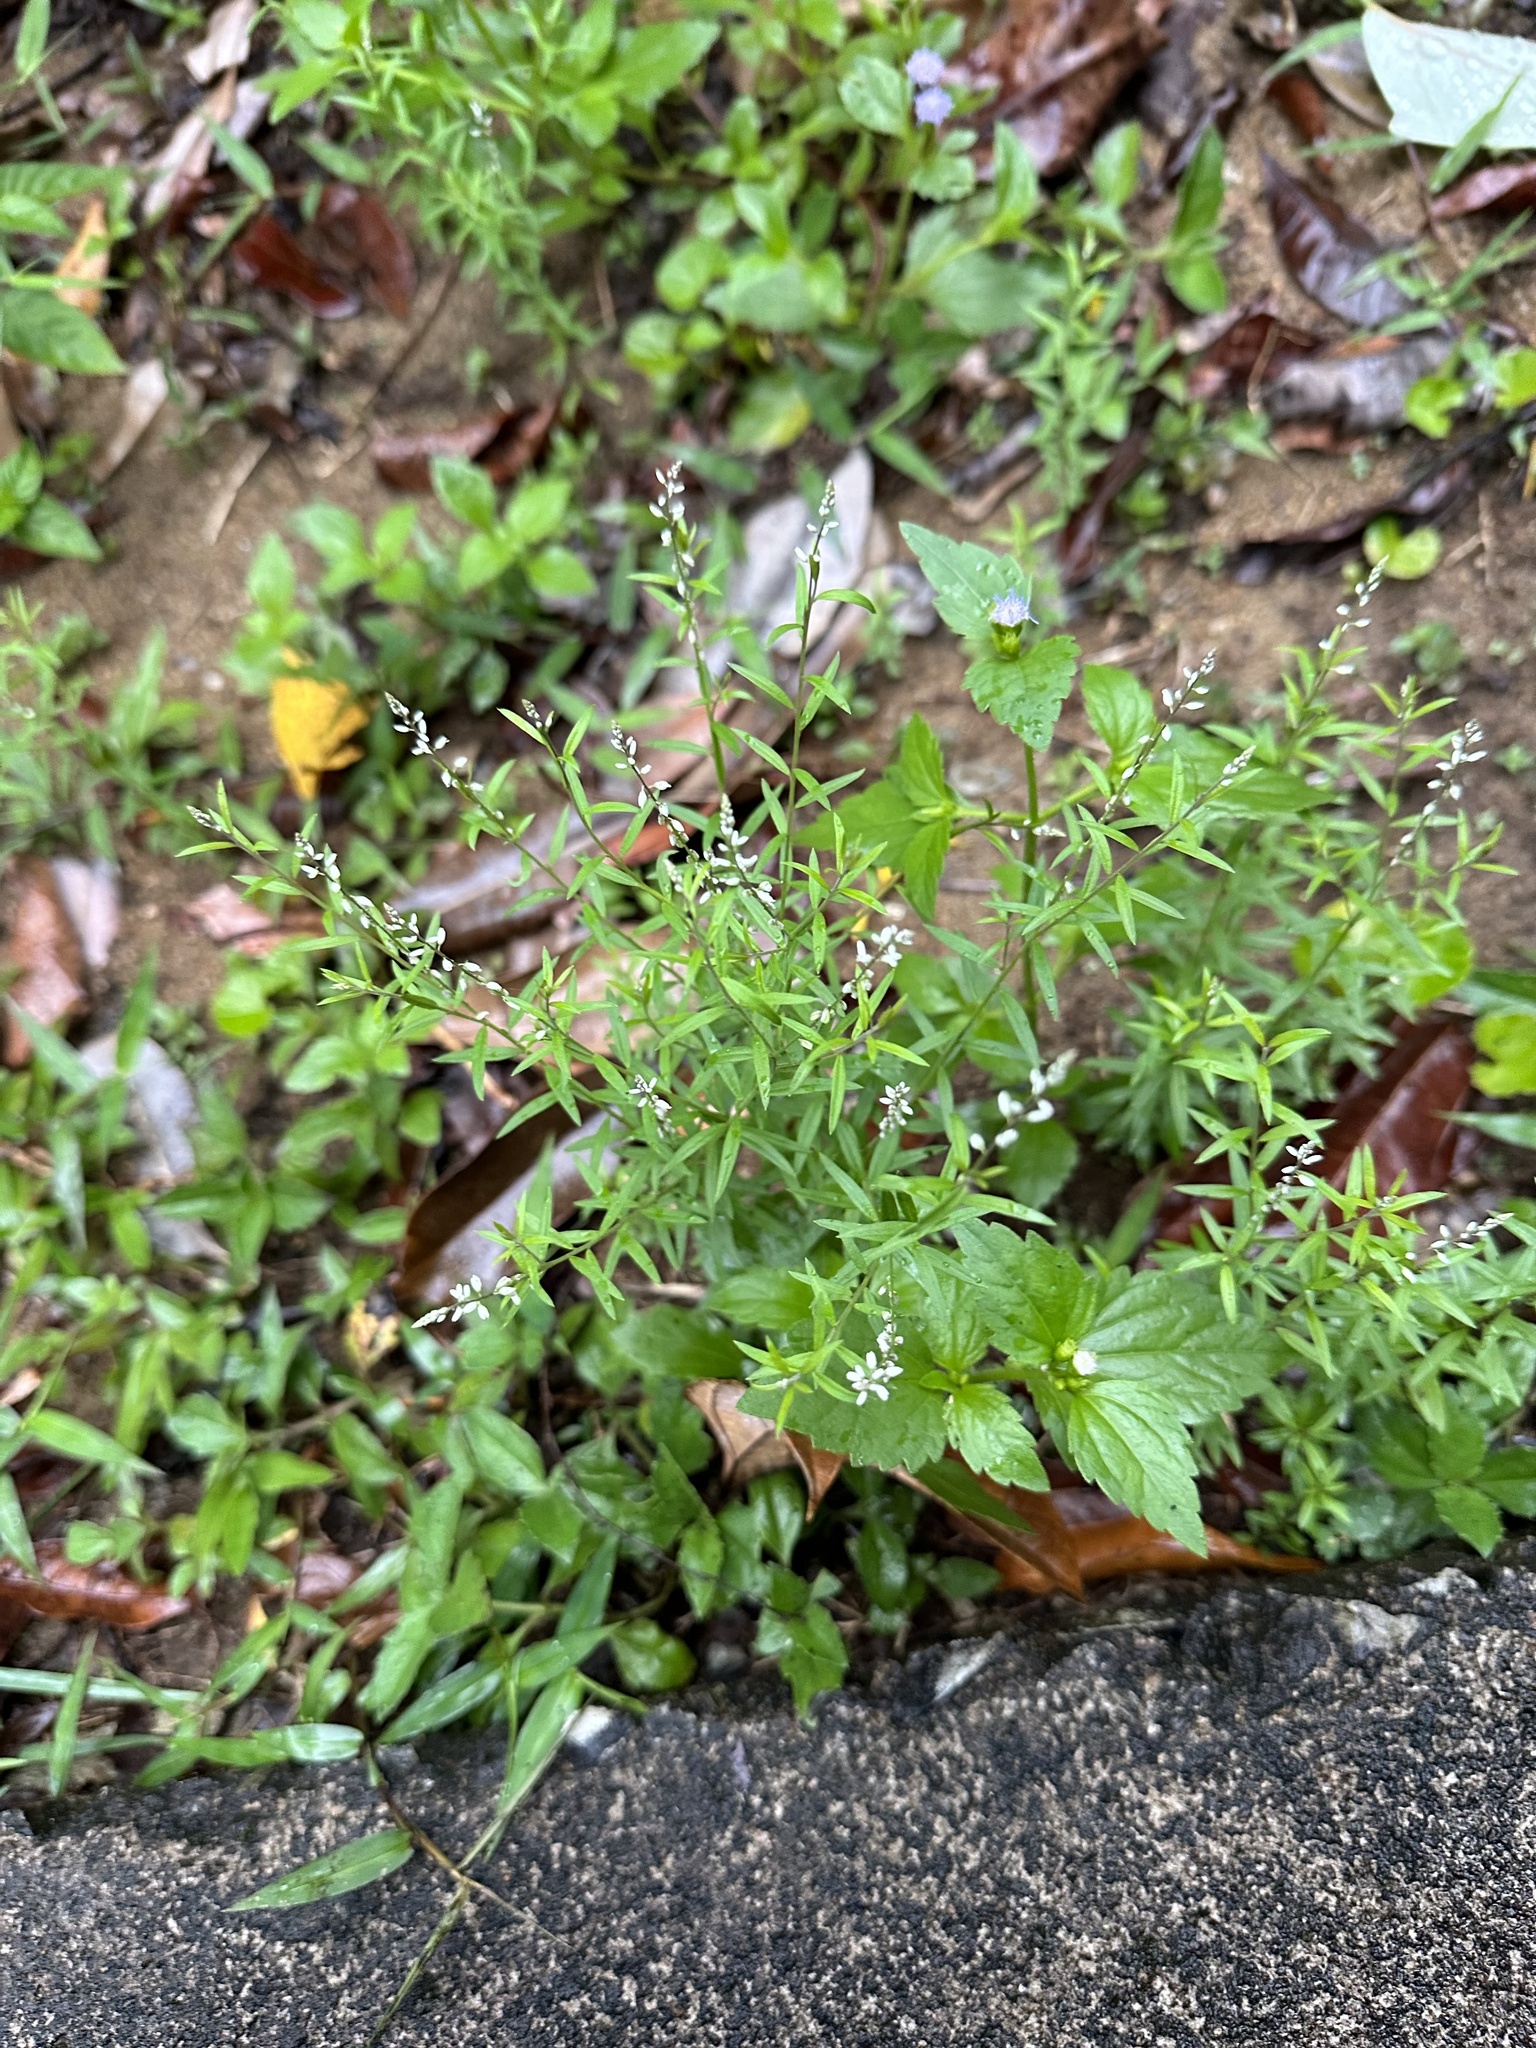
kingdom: Plantae
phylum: Tracheophyta
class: Magnoliopsida
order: Fabales
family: Polygalaceae
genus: Polygala
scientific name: Polygala paniculata
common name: Orosne
